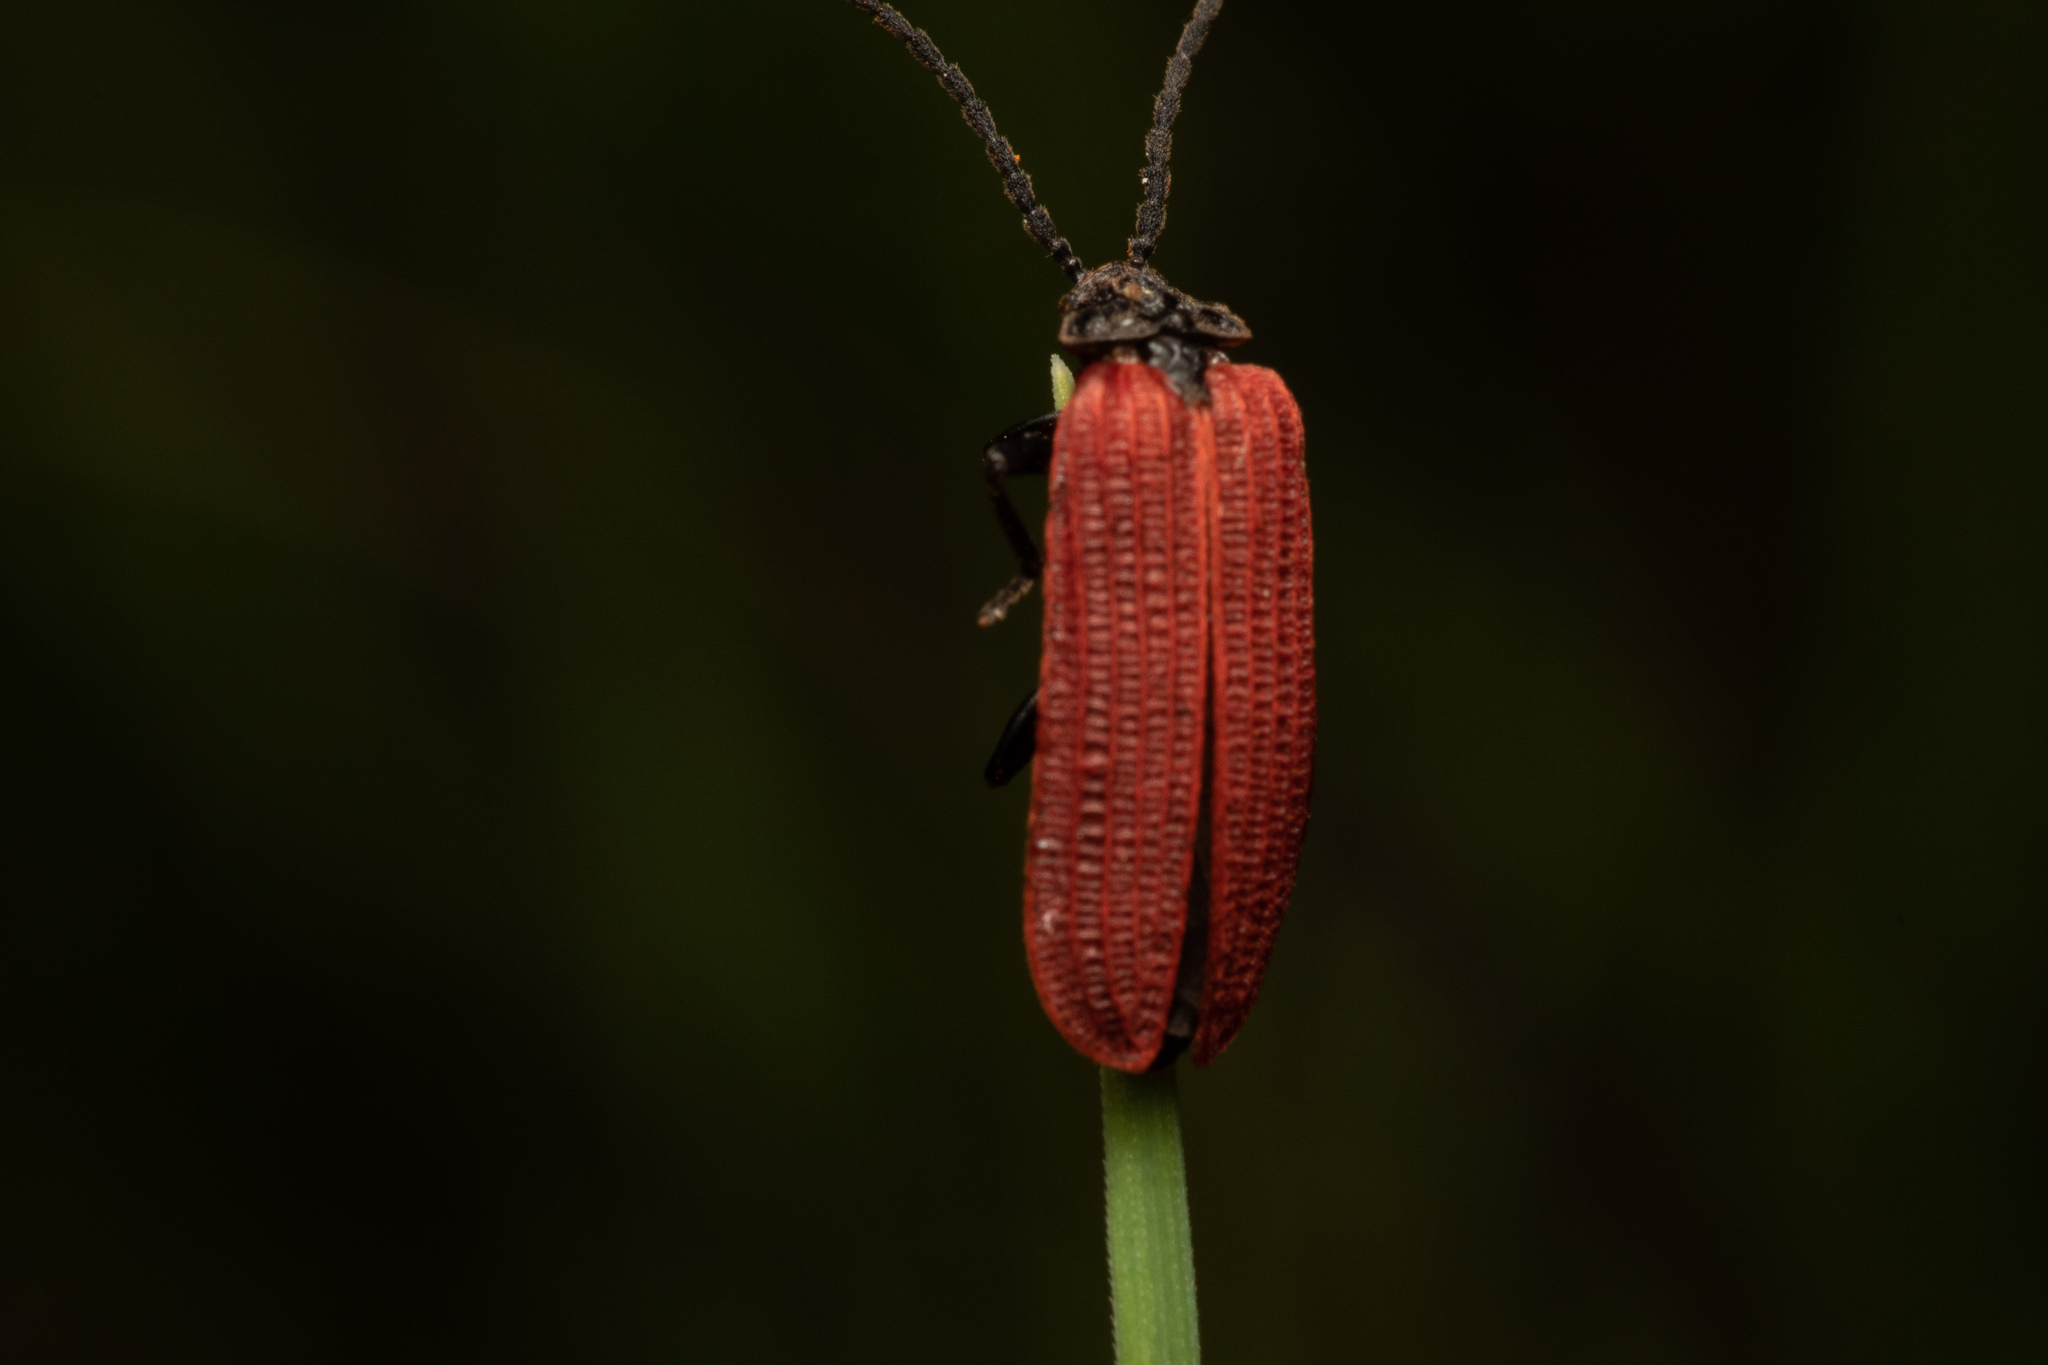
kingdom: Animalia
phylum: Arthropoda
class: Insecta
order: Coleoptera
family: Lycidae
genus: Pyropterus
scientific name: Pyropterus nigroruber
